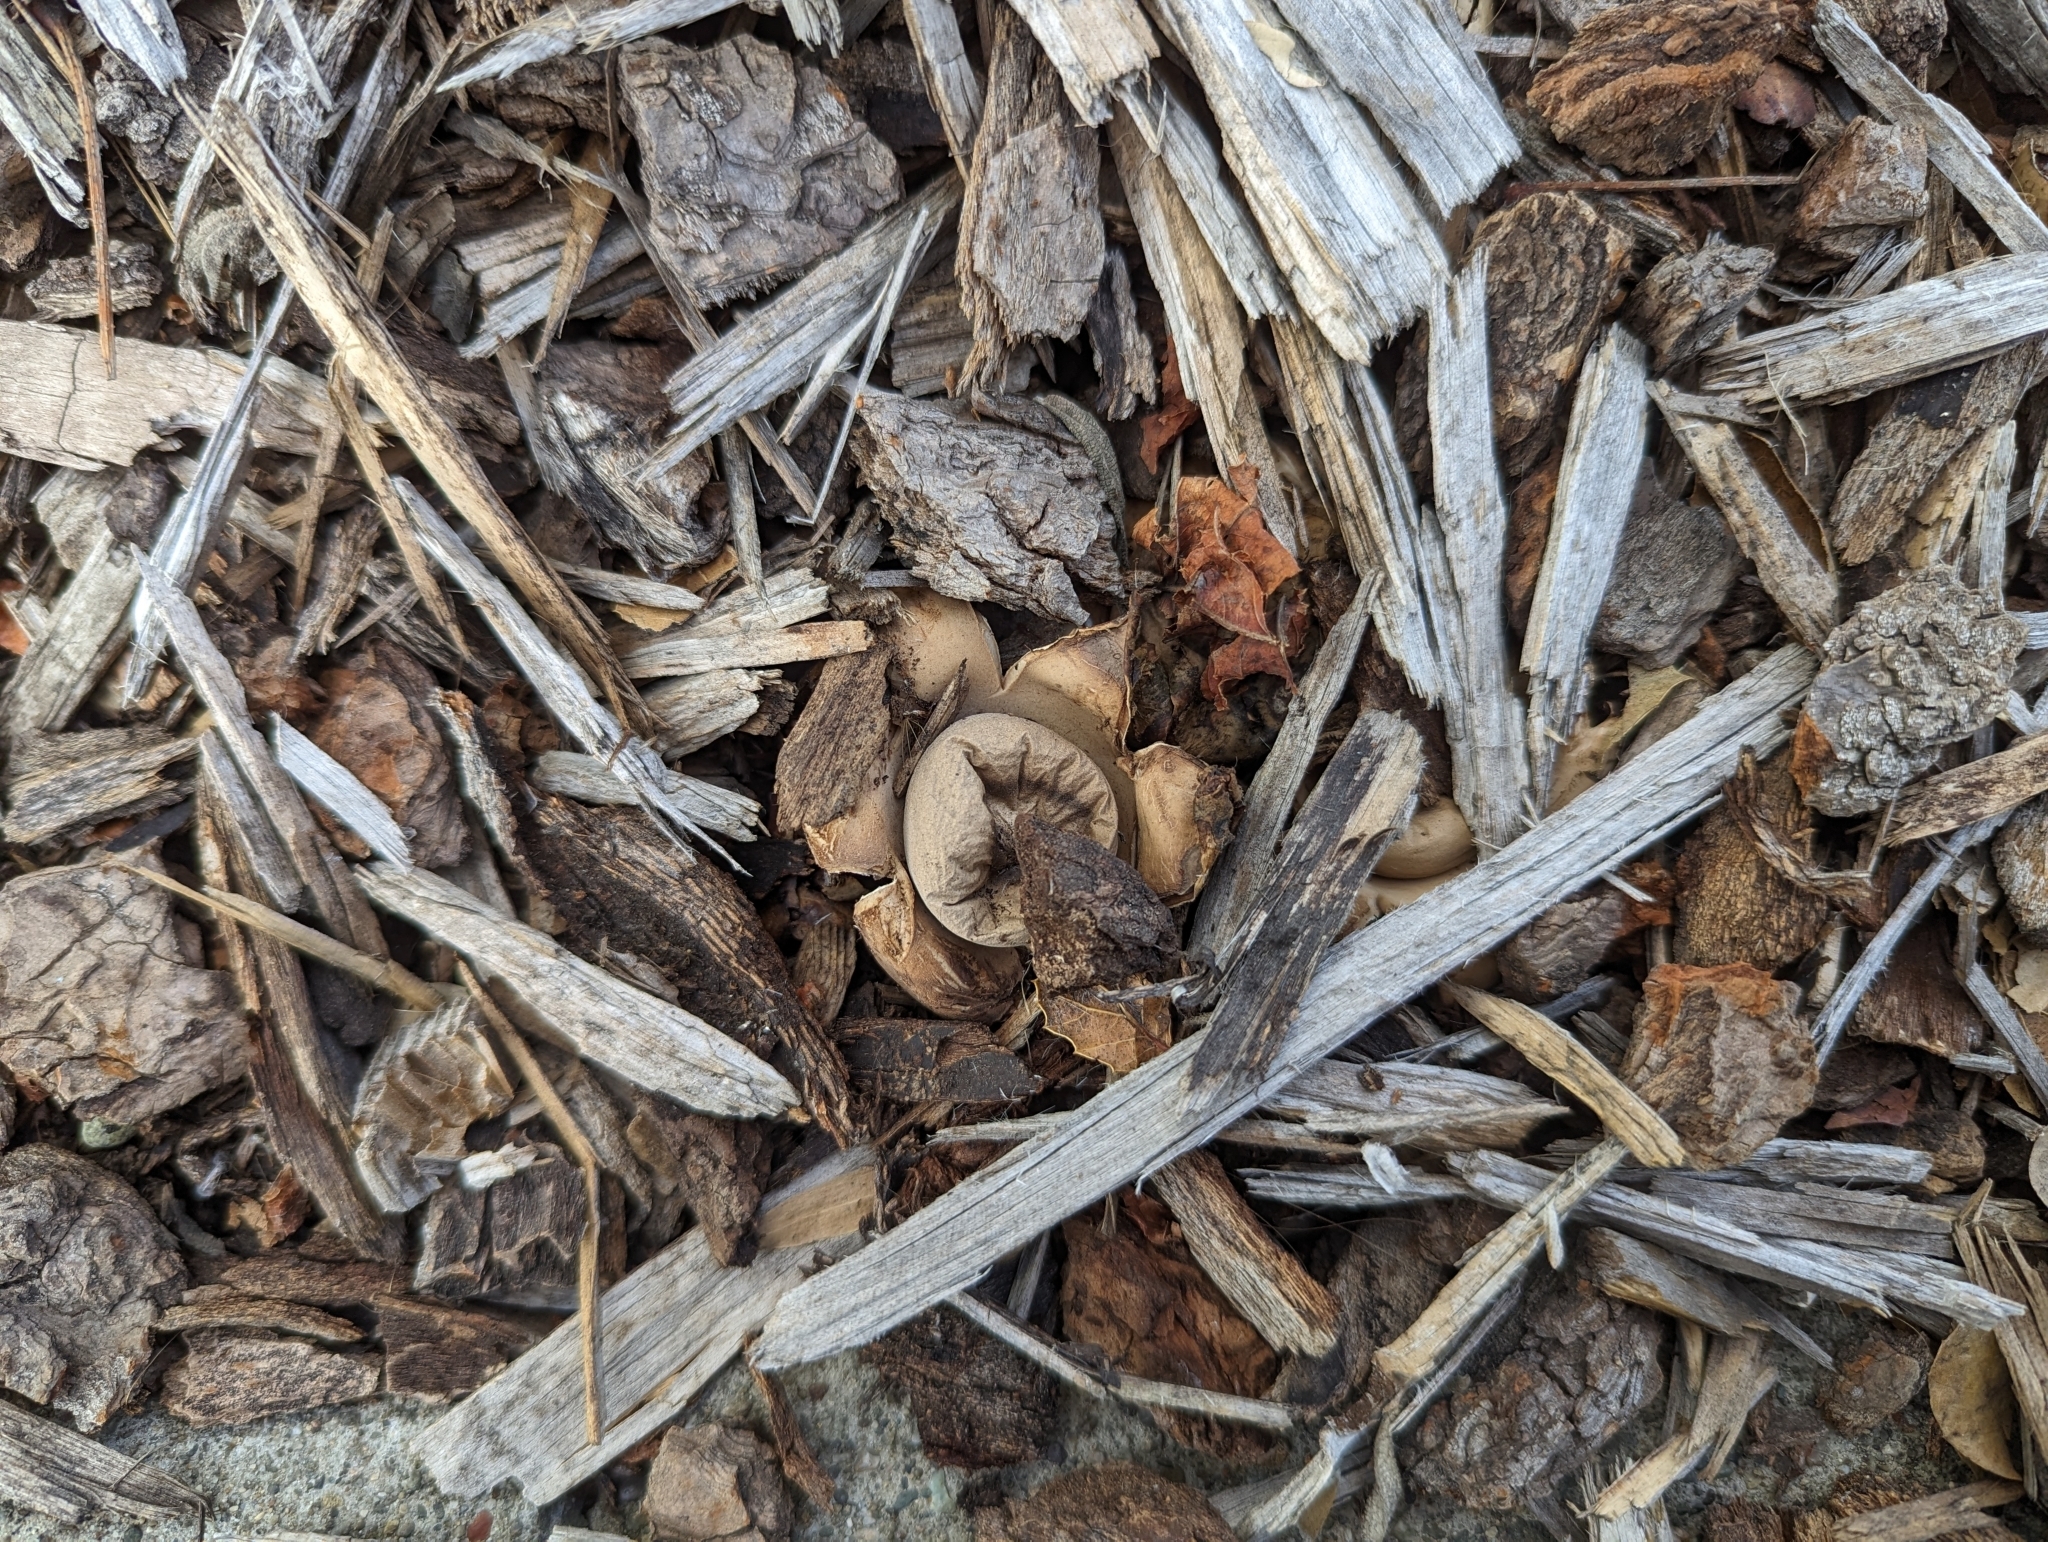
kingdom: Fungi
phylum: Basidiomycota
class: Agaricomycetes
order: Geastrales
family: Geastraceae
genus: Geastrum
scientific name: Geastrum saccatum
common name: Rounded earthstar
